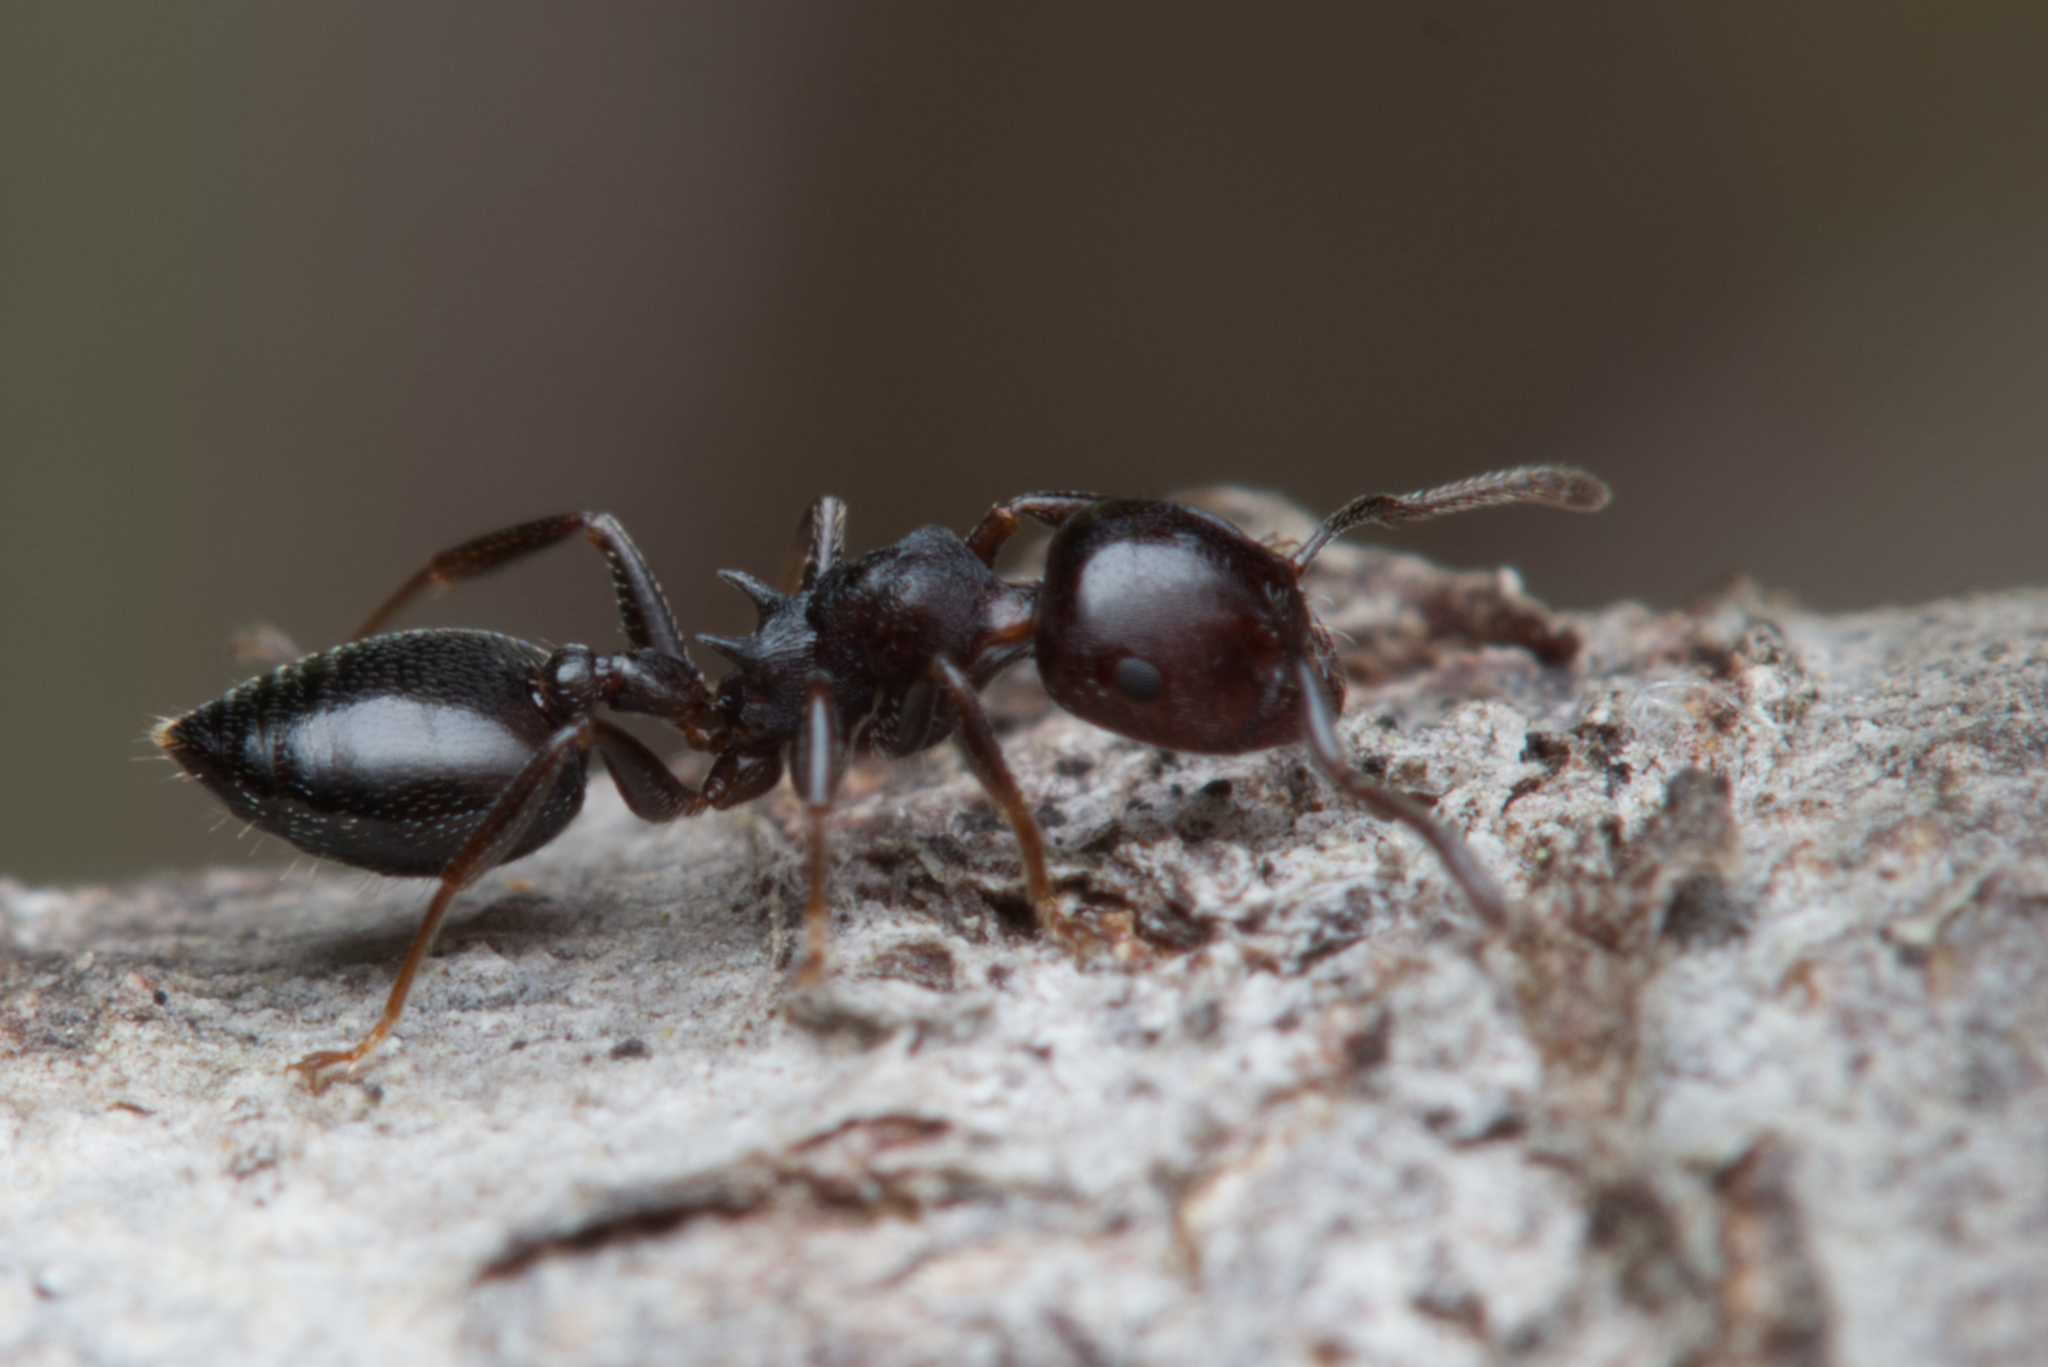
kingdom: Animalia
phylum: Arthropoda
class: Insecta
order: Hymenoptera
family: Formicidae
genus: Crematogaster
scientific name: Crematogaster cornigera
